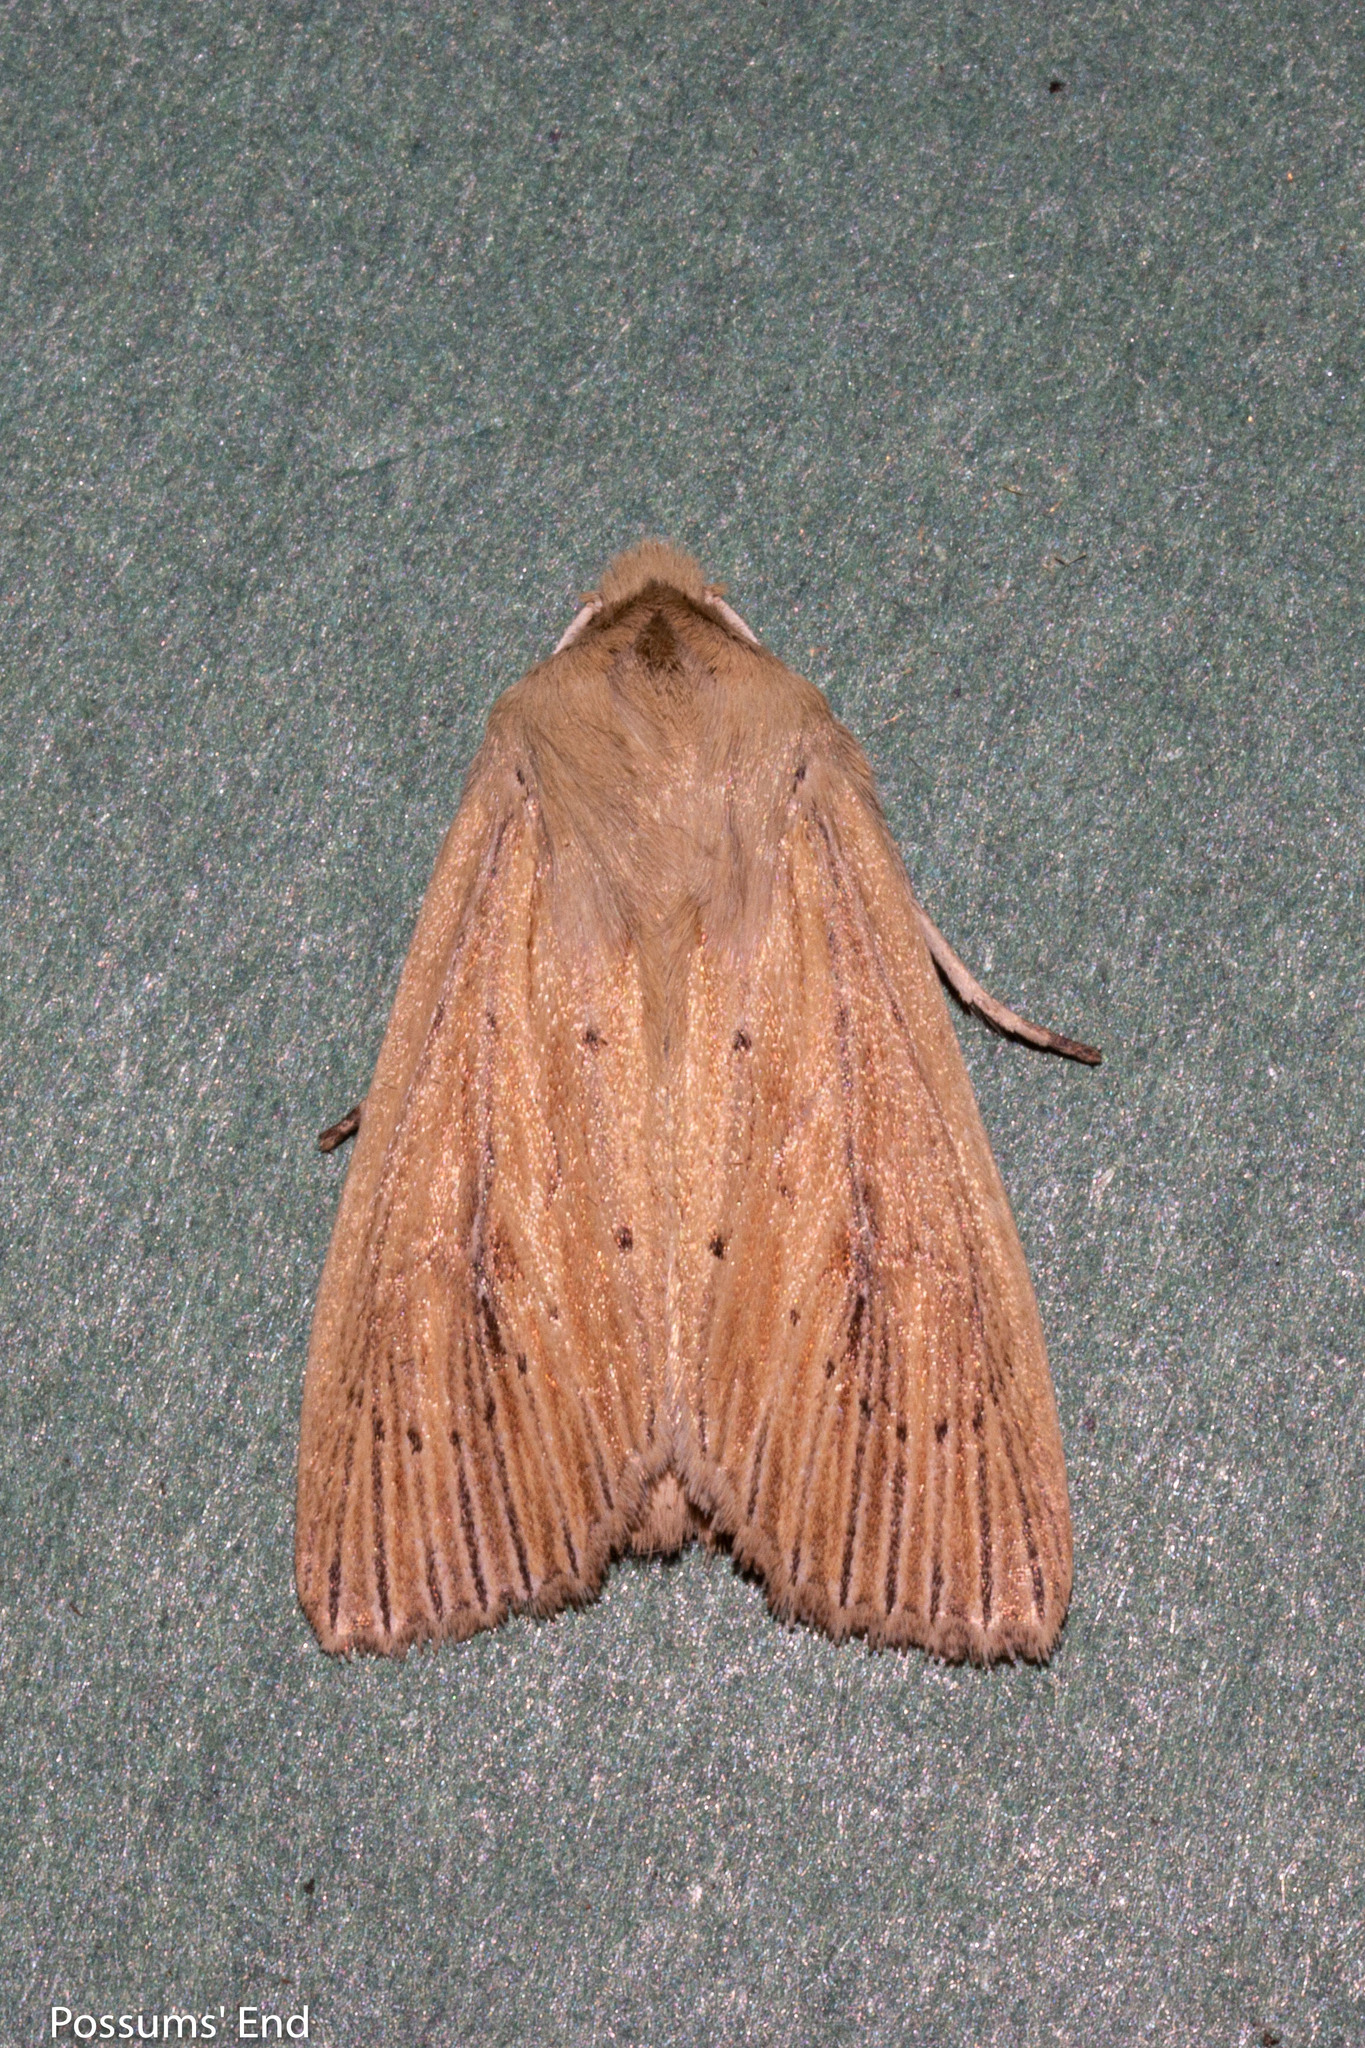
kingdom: Animalia
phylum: Arthropoda
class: Insecta
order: Lepidoptera
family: Noctuidae
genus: Ichneutica
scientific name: Ichneutica arotis
